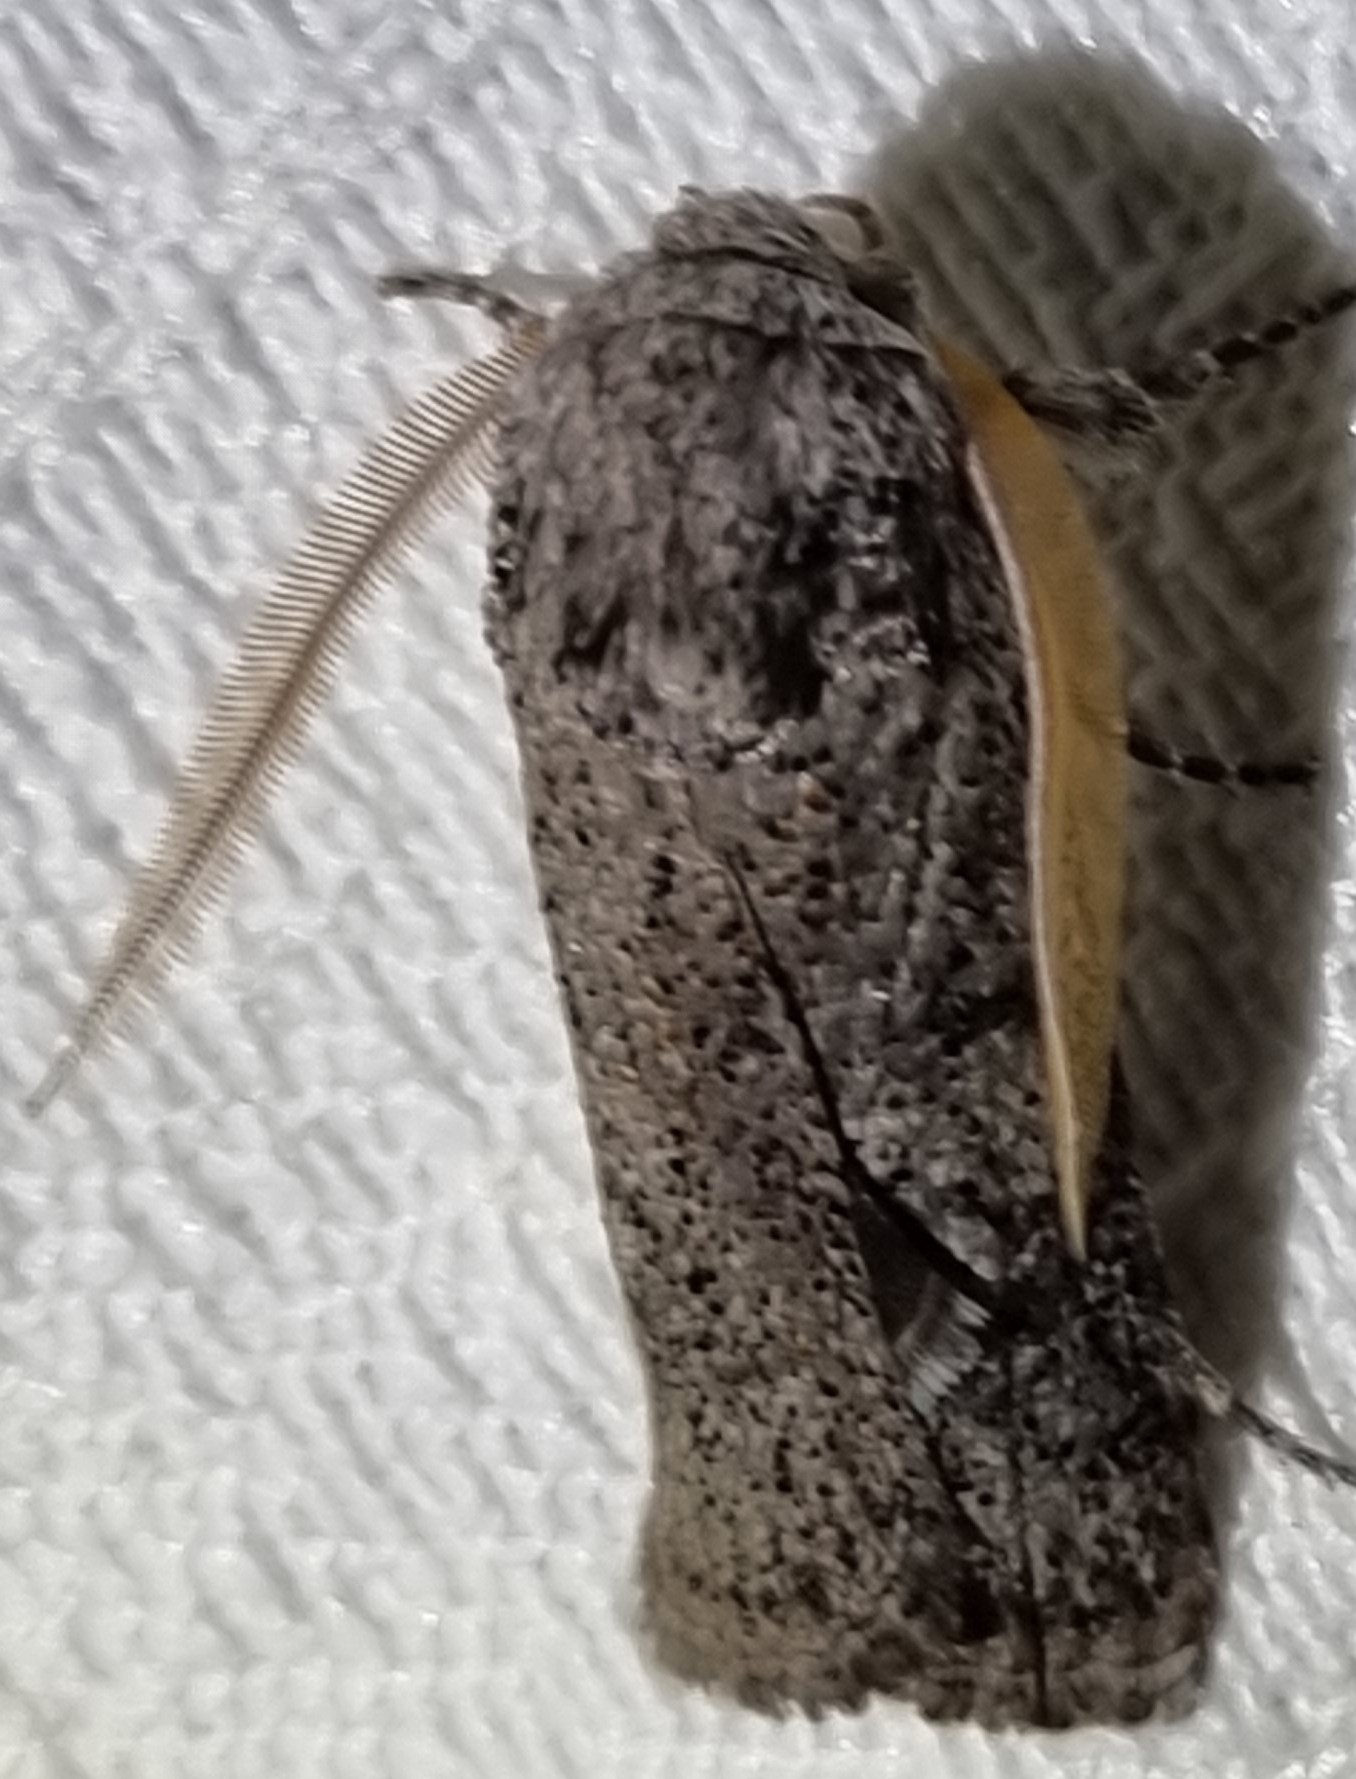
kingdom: Animalia
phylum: Arthropoda
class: Insecta
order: Lepidoptera
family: Xyloryctidae
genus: Cryptophasa
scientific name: Cryptophasa irrorata
